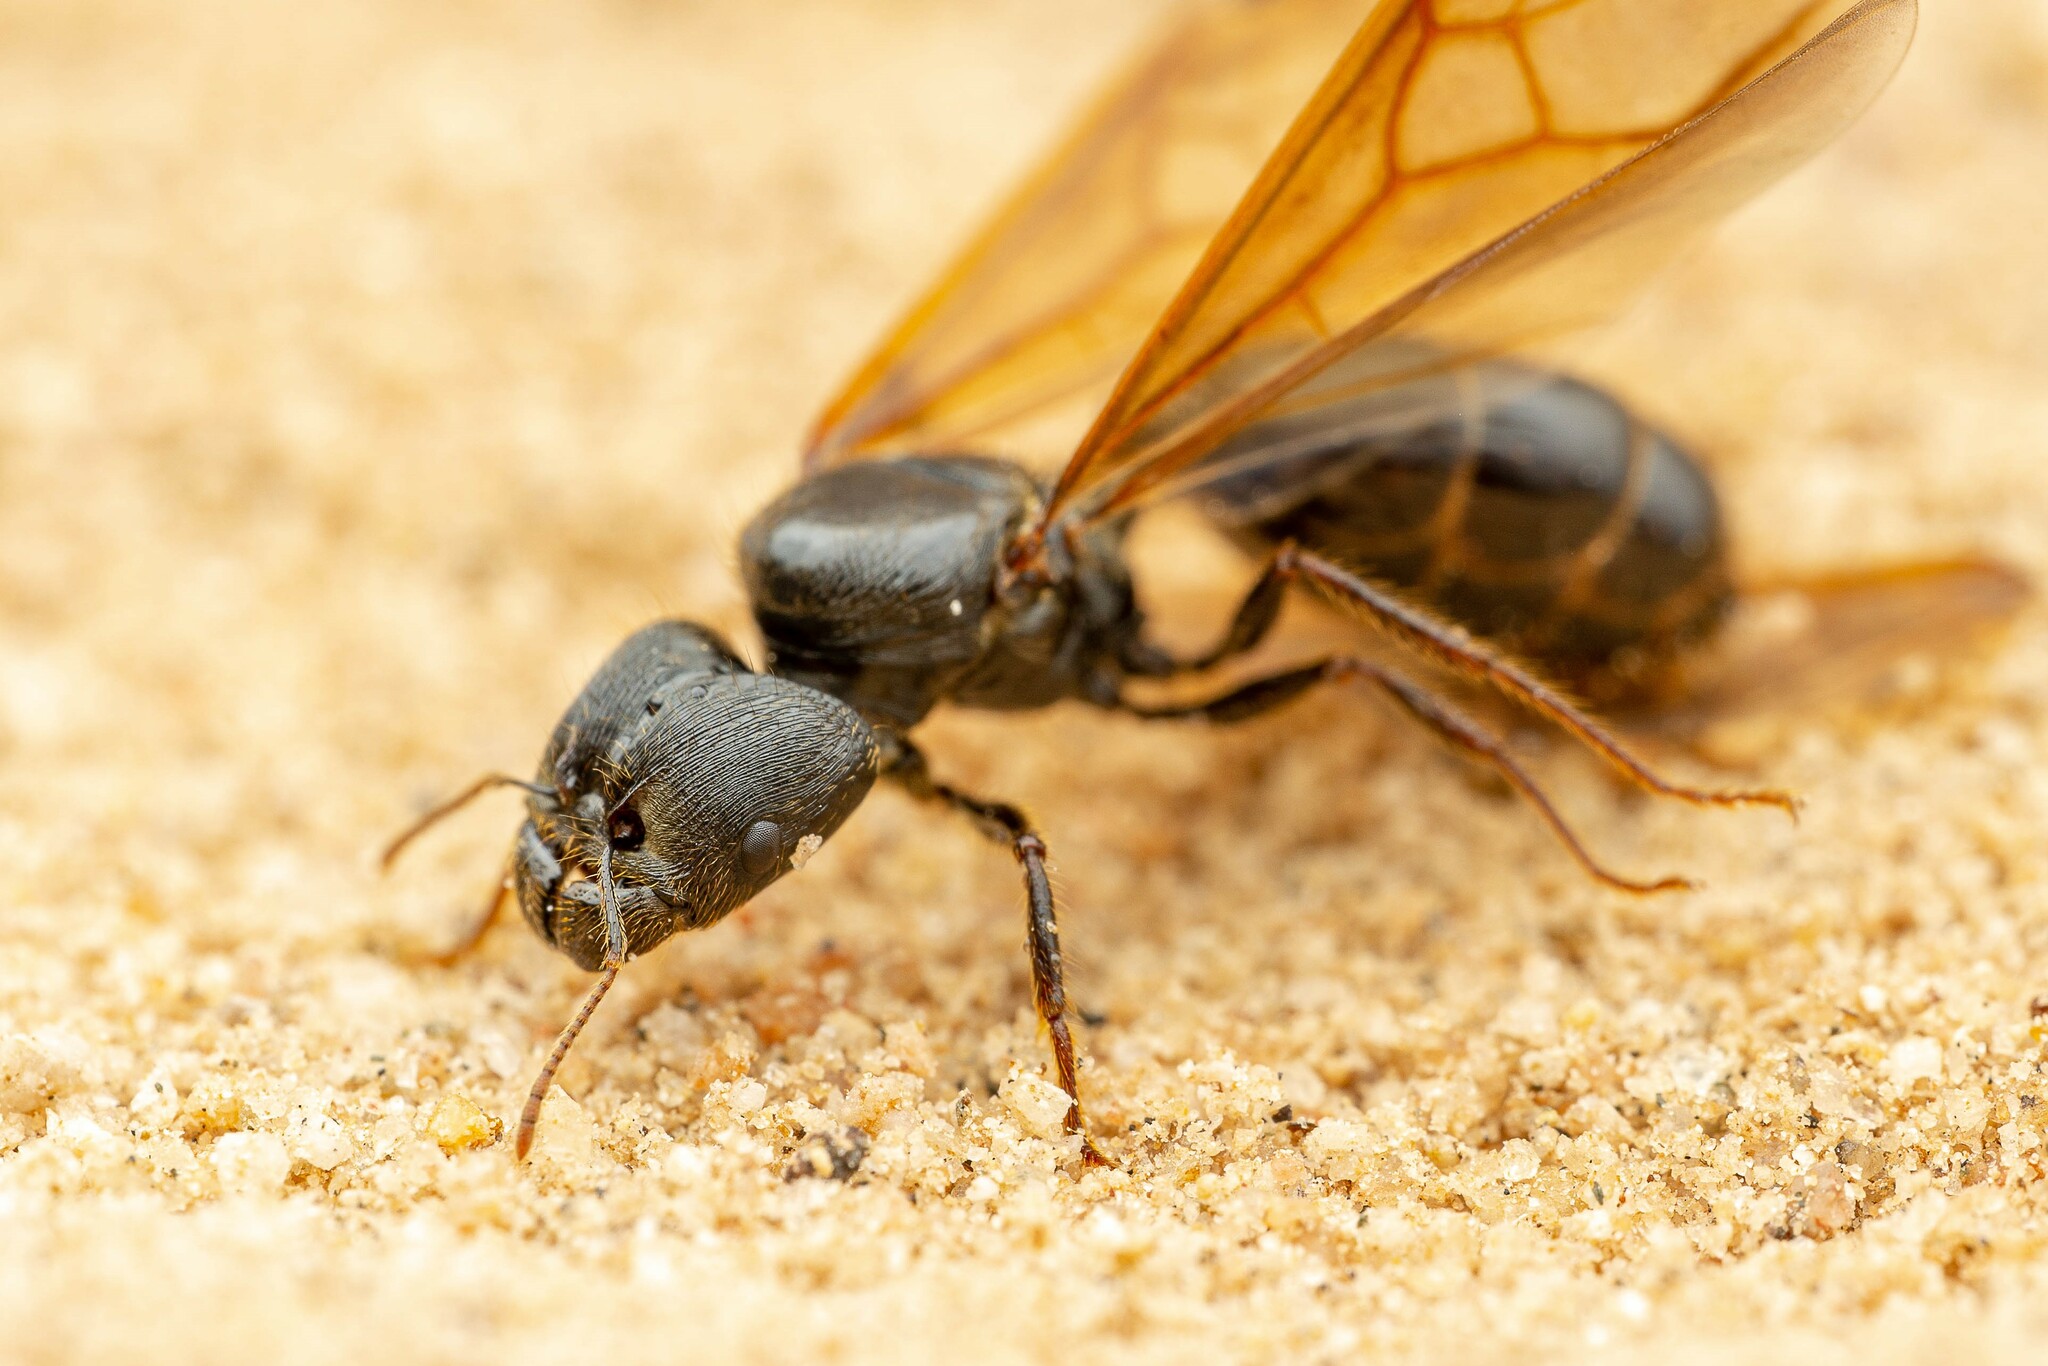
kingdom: Animalia
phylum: Arthropoda
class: Insecta
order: Hymenoptera
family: Formicidae
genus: Pheidole
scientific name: Pheidole rhea
